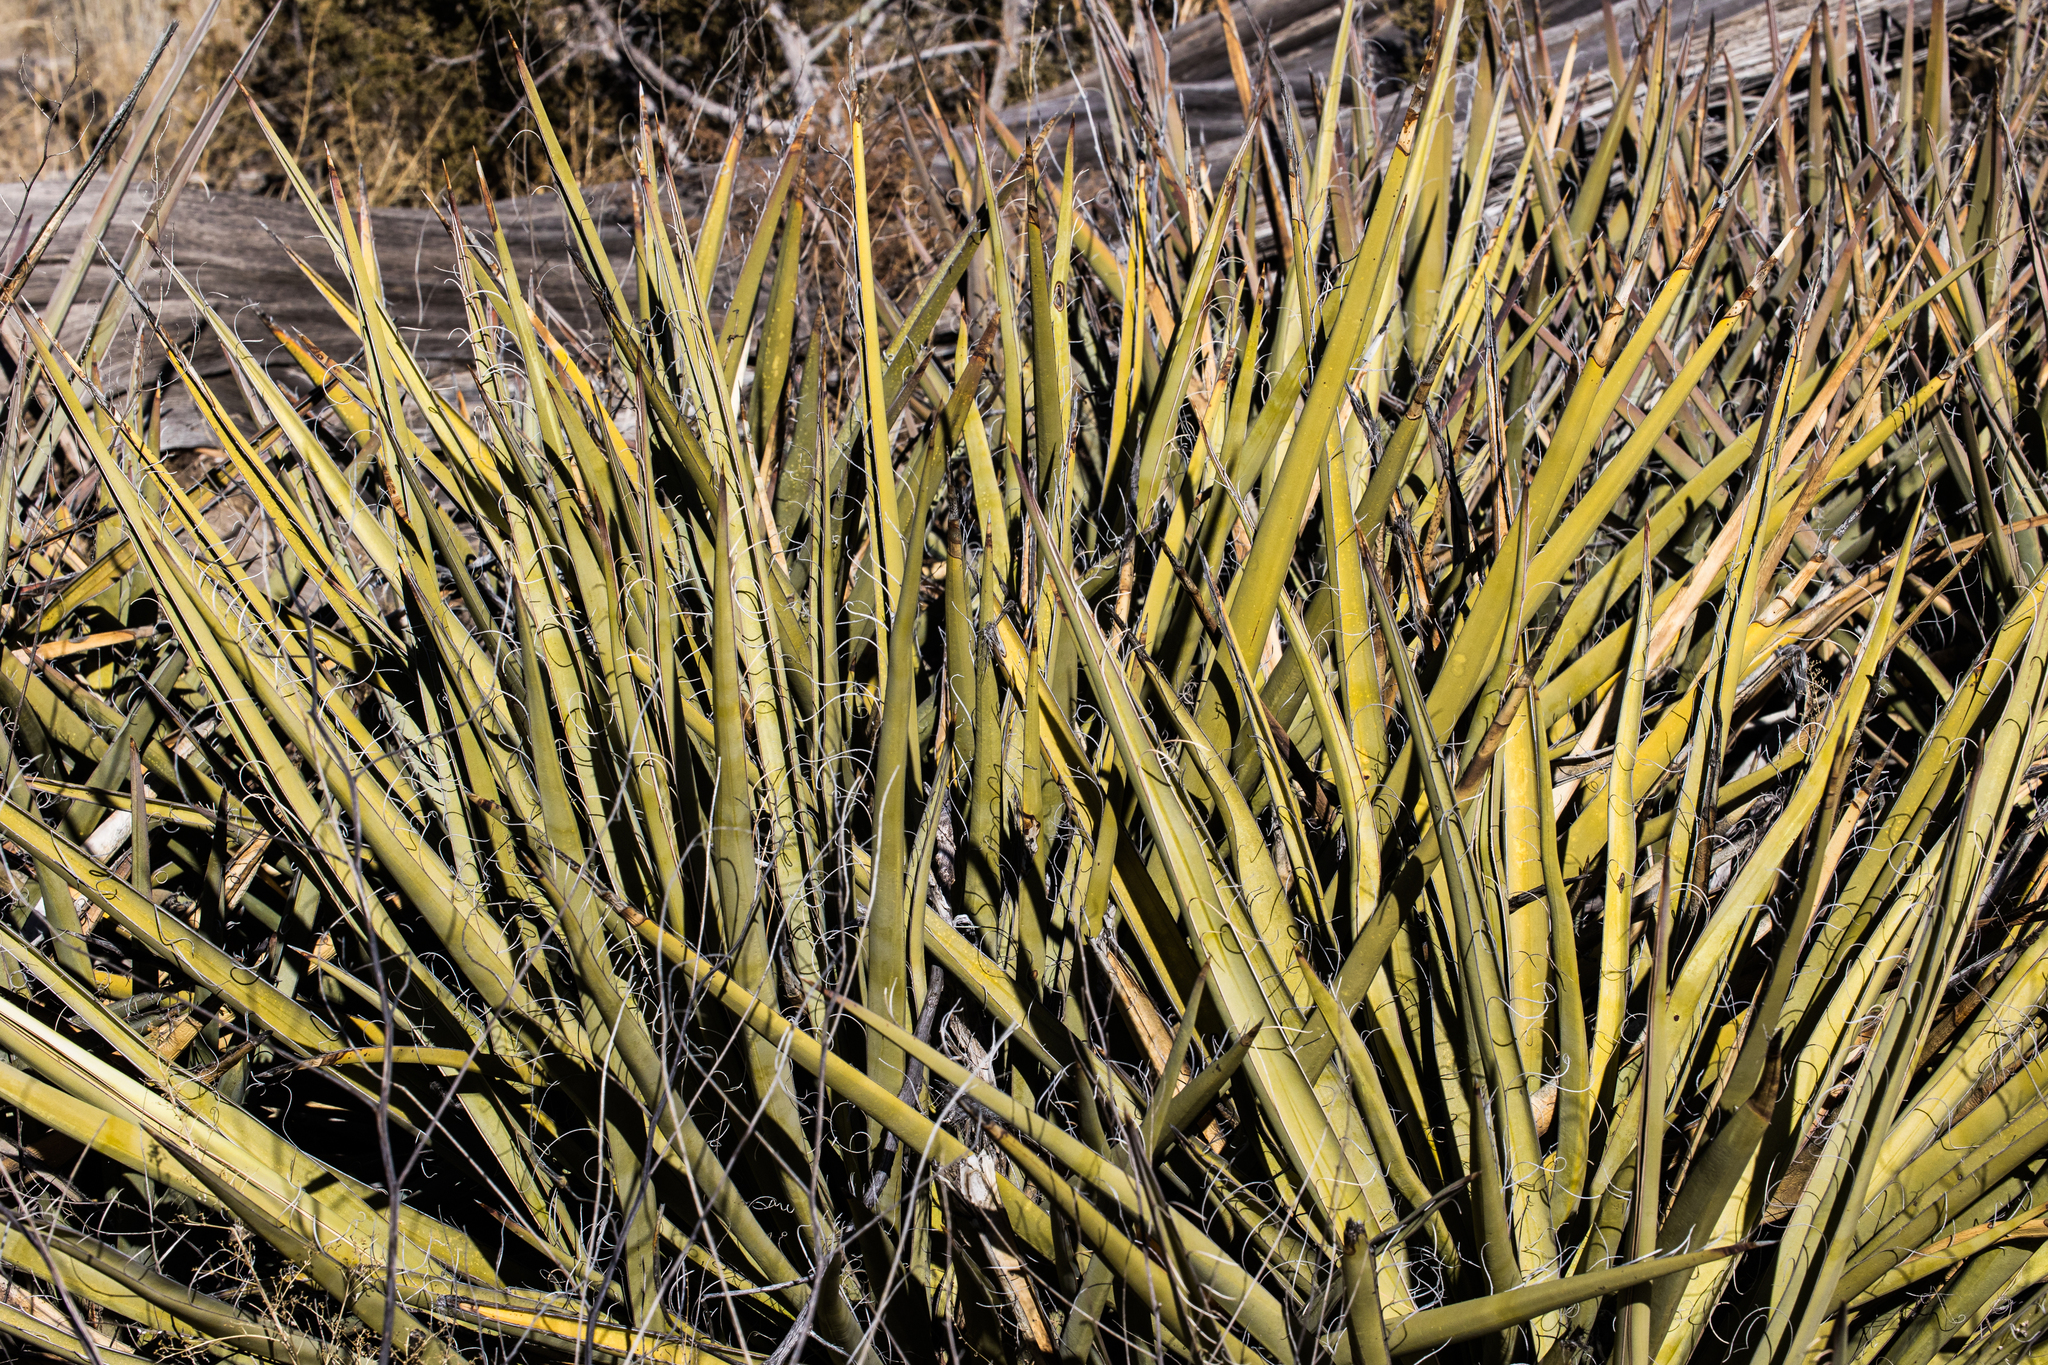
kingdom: Plantae
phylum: Tracheophyta
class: Liliopsida
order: Asparagales
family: Asparagaceae
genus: Yucca
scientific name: Yucca baccata
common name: Banana yucca
